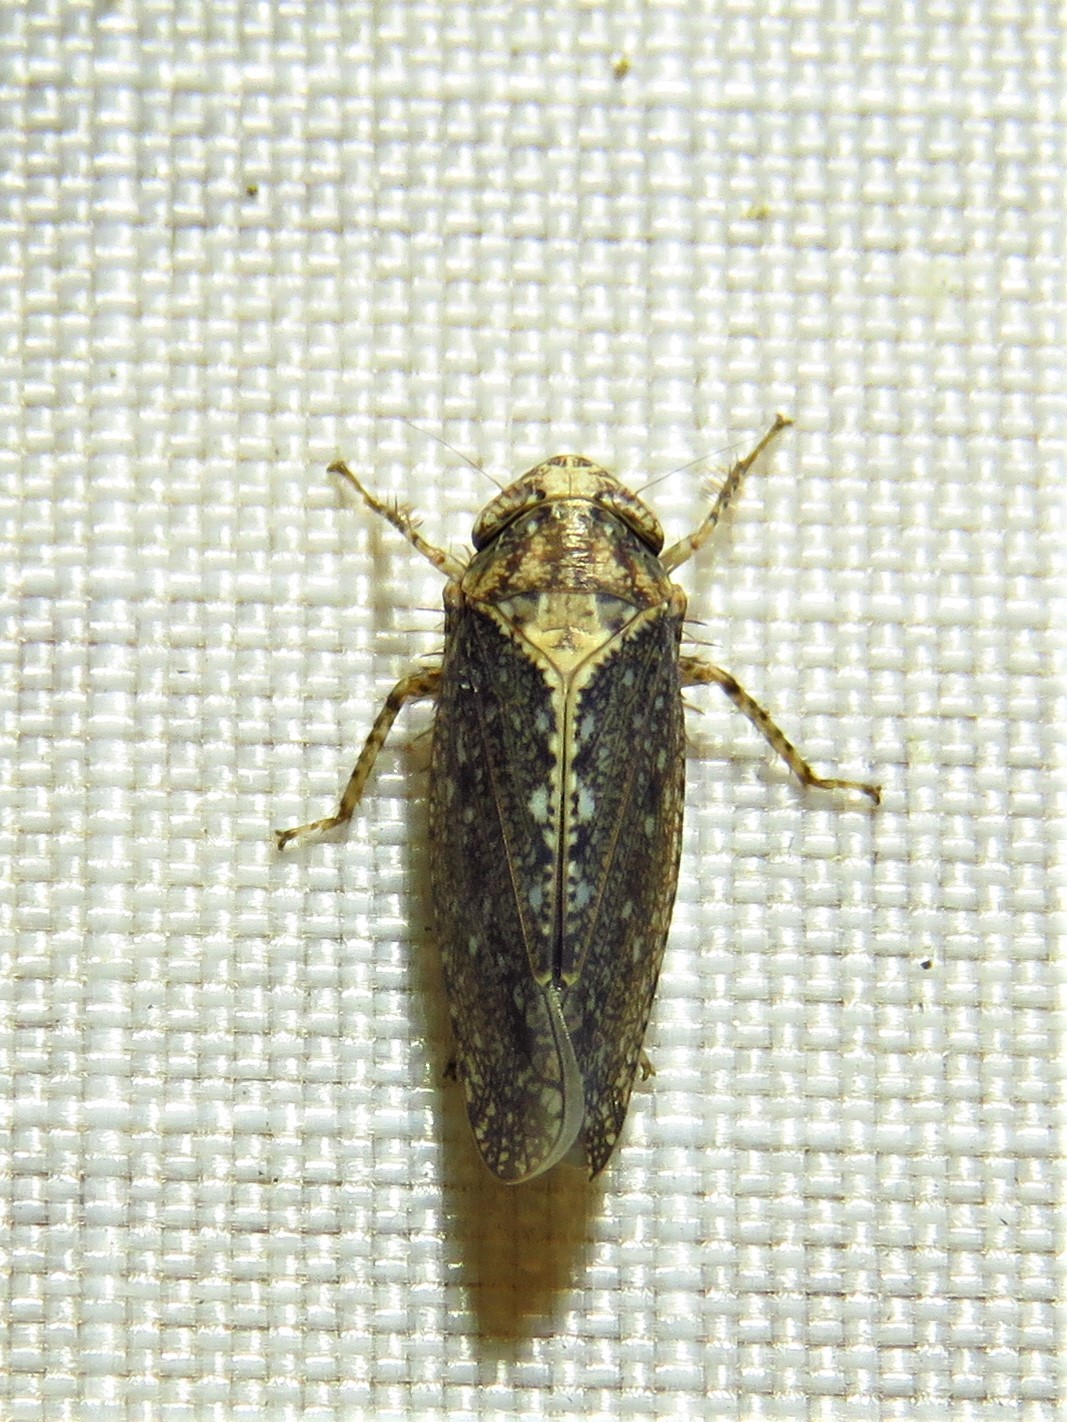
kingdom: Animalia
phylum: Arthropoda
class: Insecta
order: Hemiptera
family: Cicadellidae
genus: Excultanus
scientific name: Excultanus excultus
